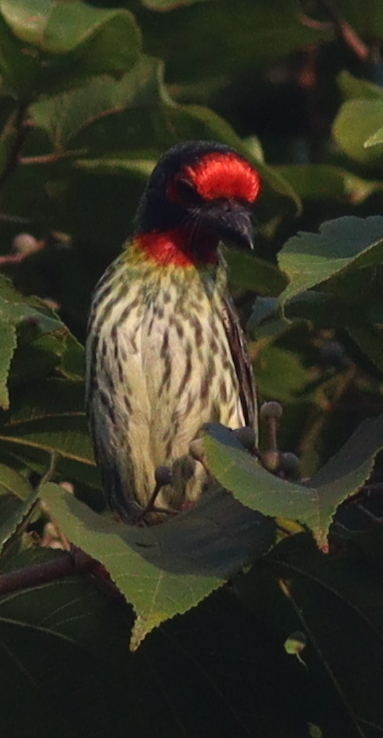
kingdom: Animalia
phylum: Chordata
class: Aves
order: Piciformes
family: Megalaimidae
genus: Psilopogon
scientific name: Psilopogon haemacephalus
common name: Coppersmith barbet
